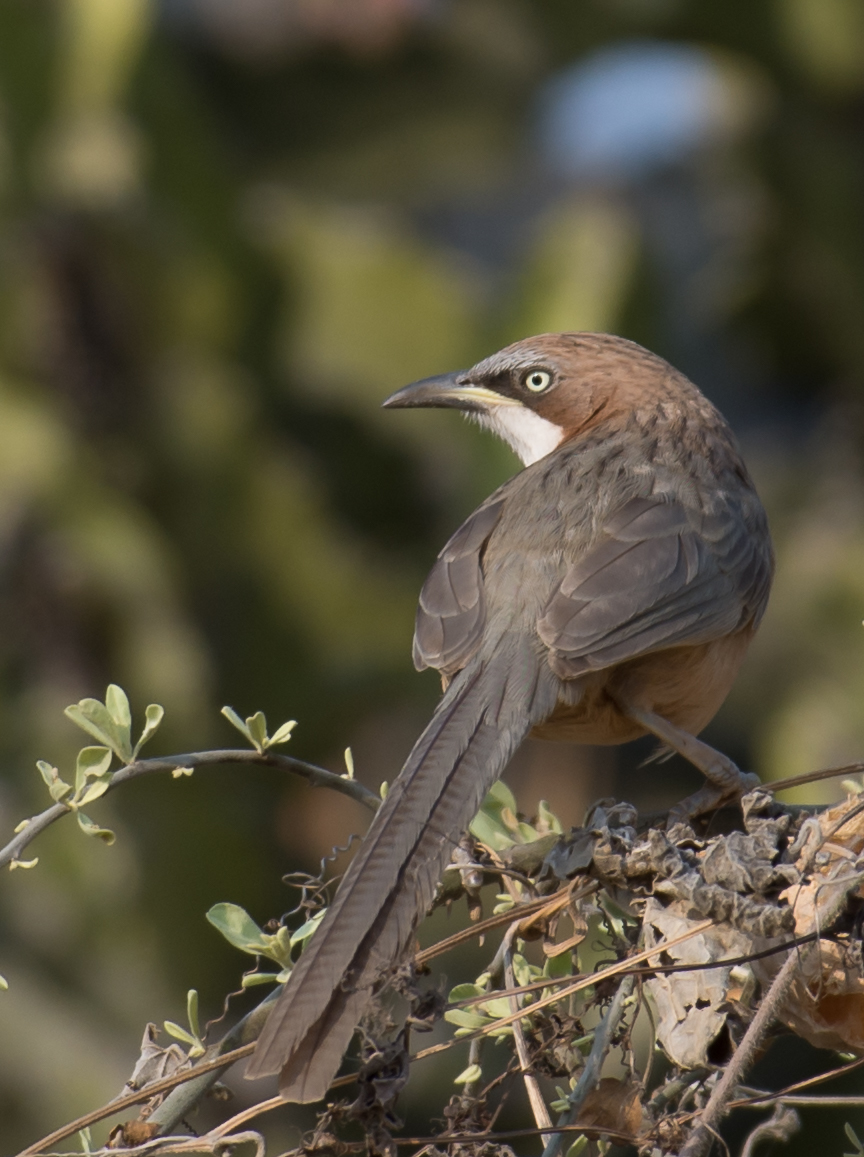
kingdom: Animalia
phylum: Chordata
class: Aves
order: Passeriformes
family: Leiothrichidae
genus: Turdoides
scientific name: Turdoides gularis
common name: White-throated babbler
